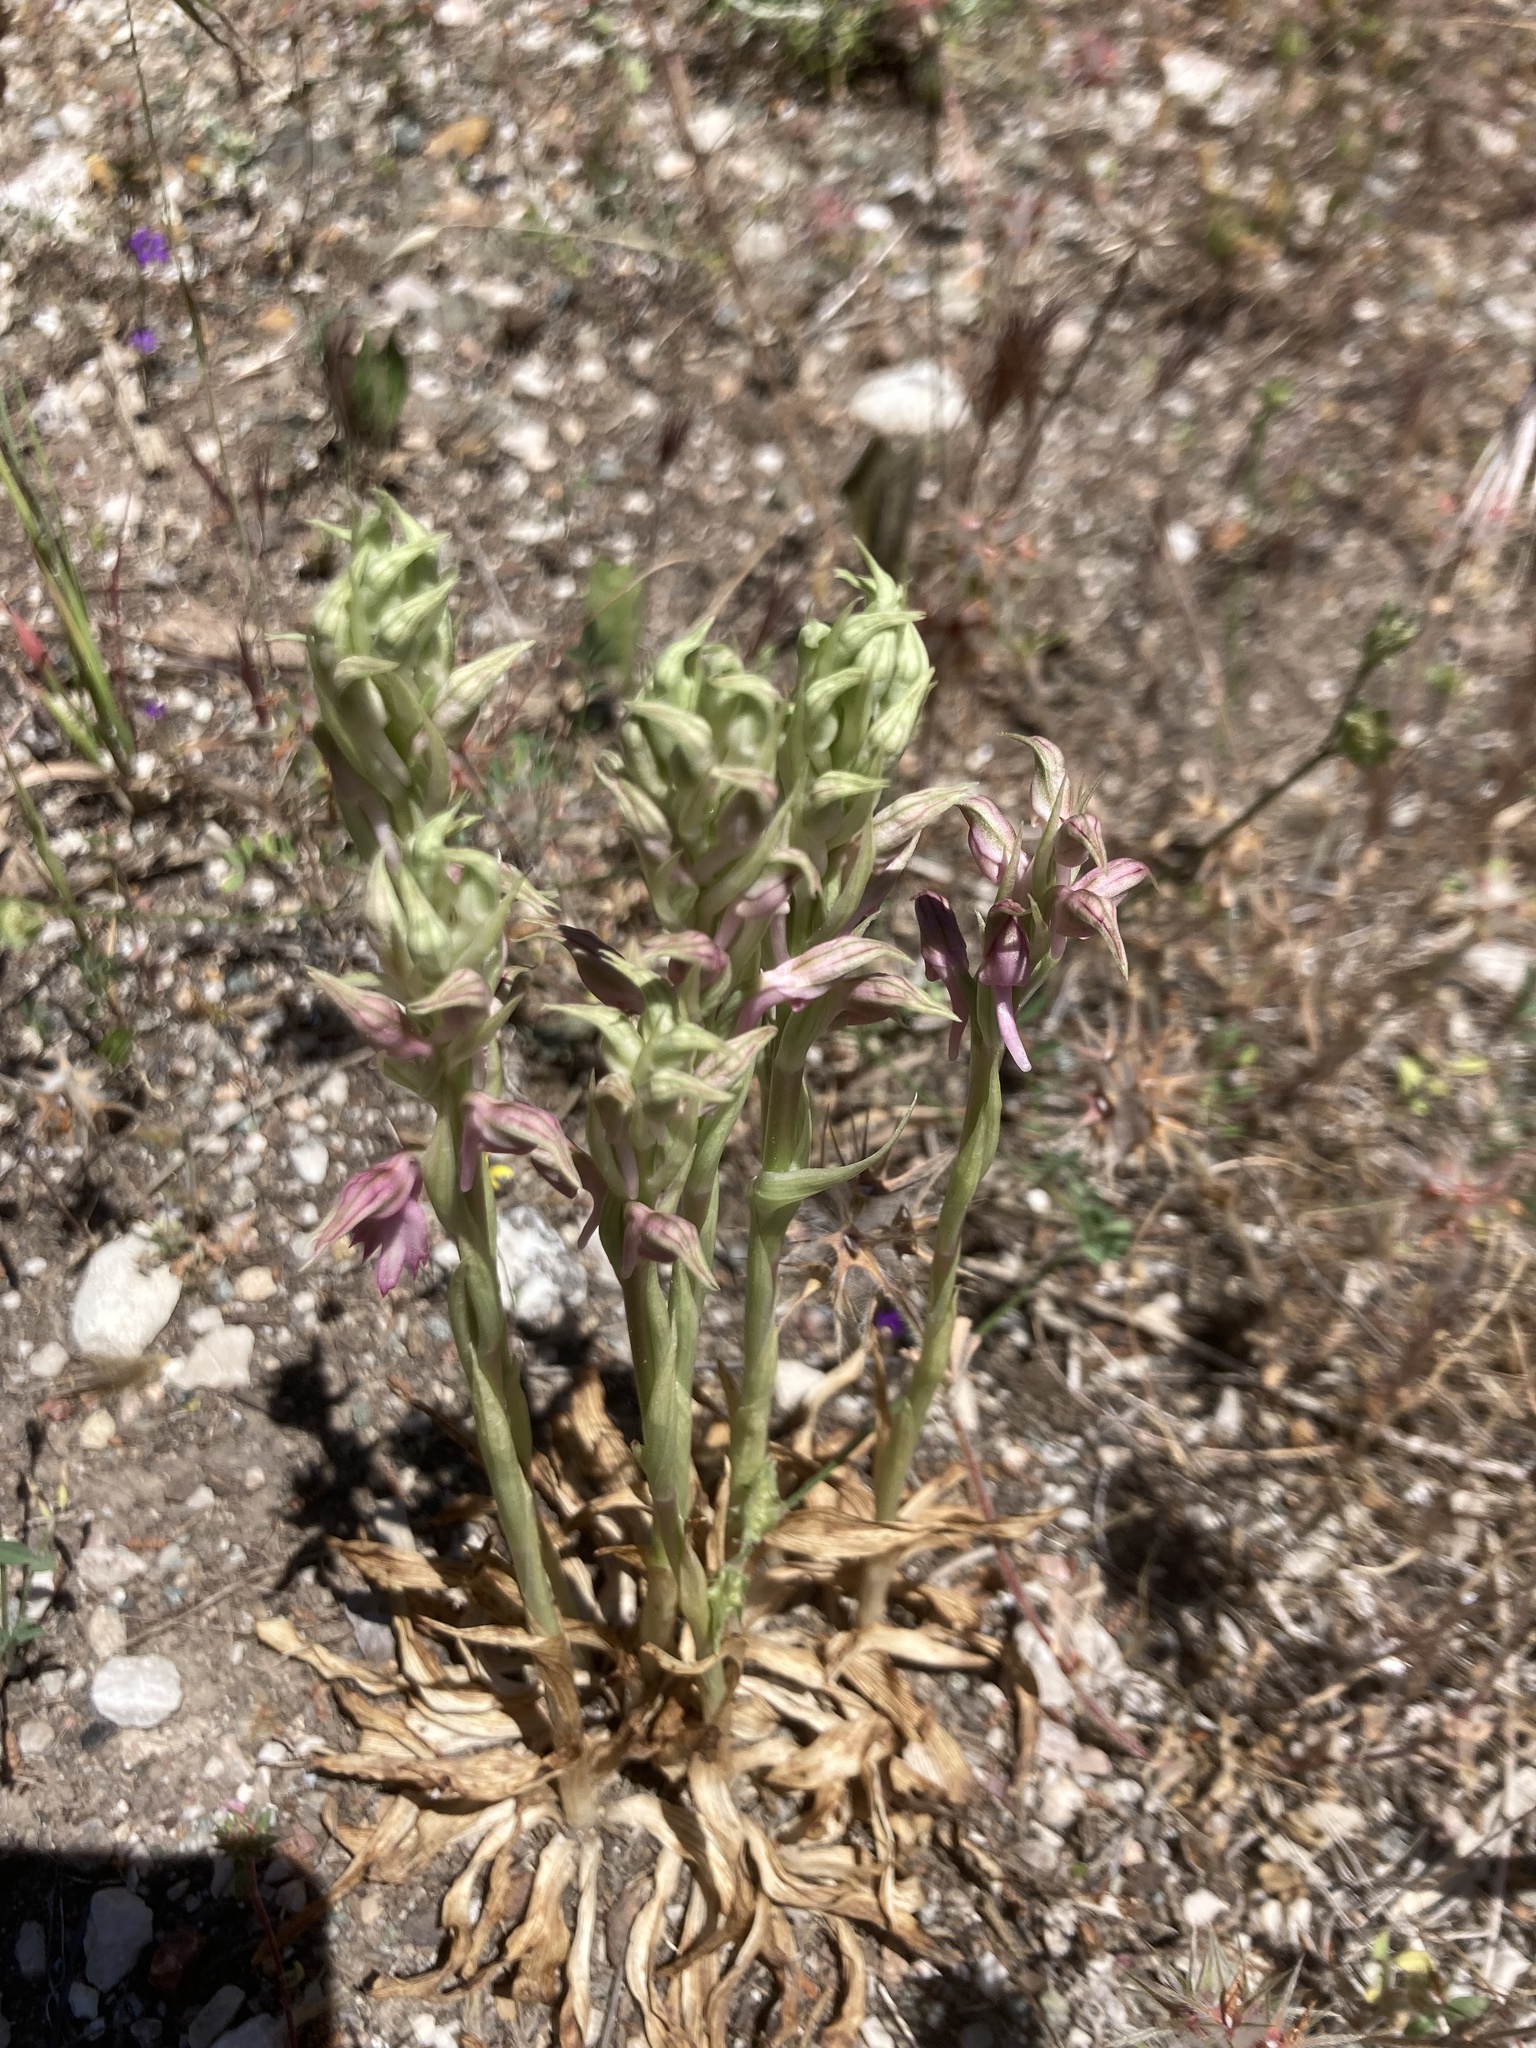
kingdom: Plantae
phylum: Tracheophyta
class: Liliopsida
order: Asparagales
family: Orchidaceae
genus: Anacamptis
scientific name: Anacamptis sancta
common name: Holy orchid
